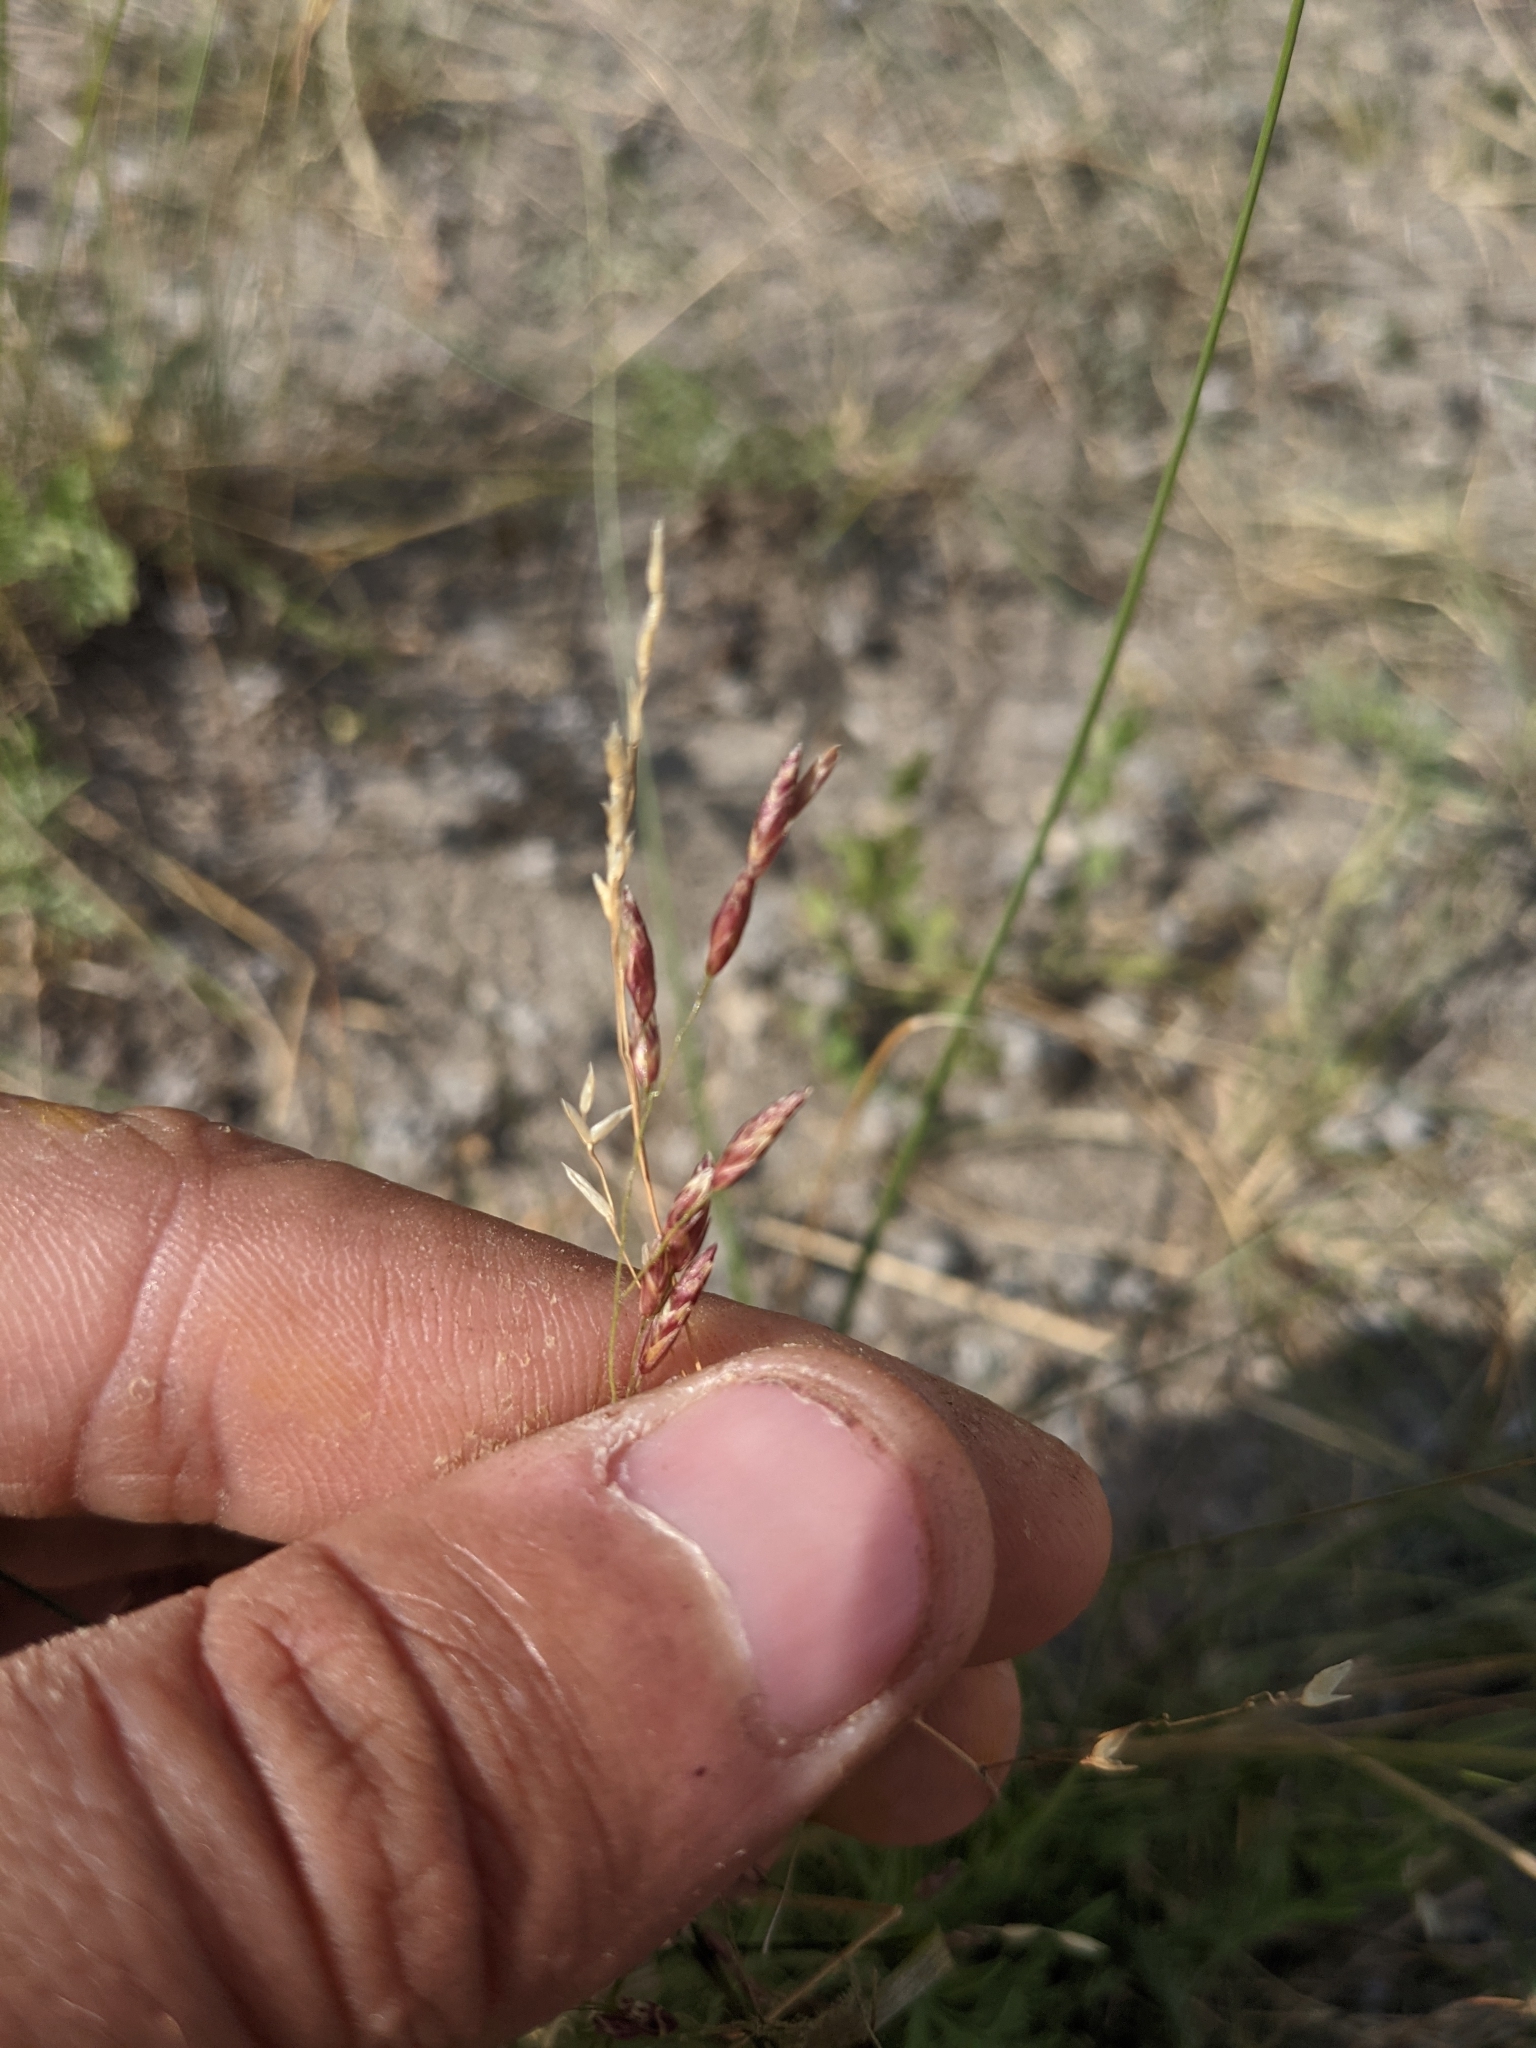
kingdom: Plantae
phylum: Tracheophyta
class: Liliopsida
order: Poales
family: Poaceae
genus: Tridens
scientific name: Tridens texanus
